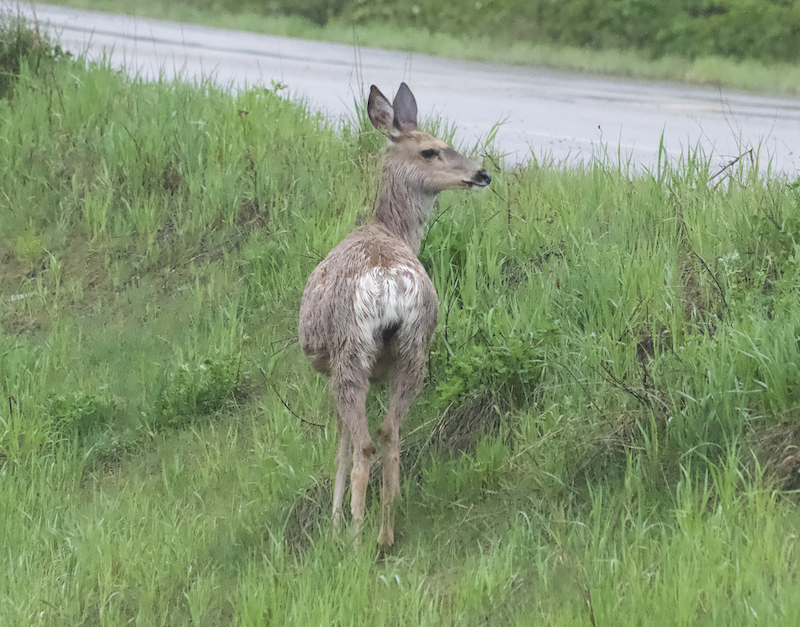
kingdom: Animalia
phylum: Chordata
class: Mammalia
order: Artiodactyla
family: Cervidae
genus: Odocoileus
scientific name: Odocoileus hemionus
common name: Mule deer
